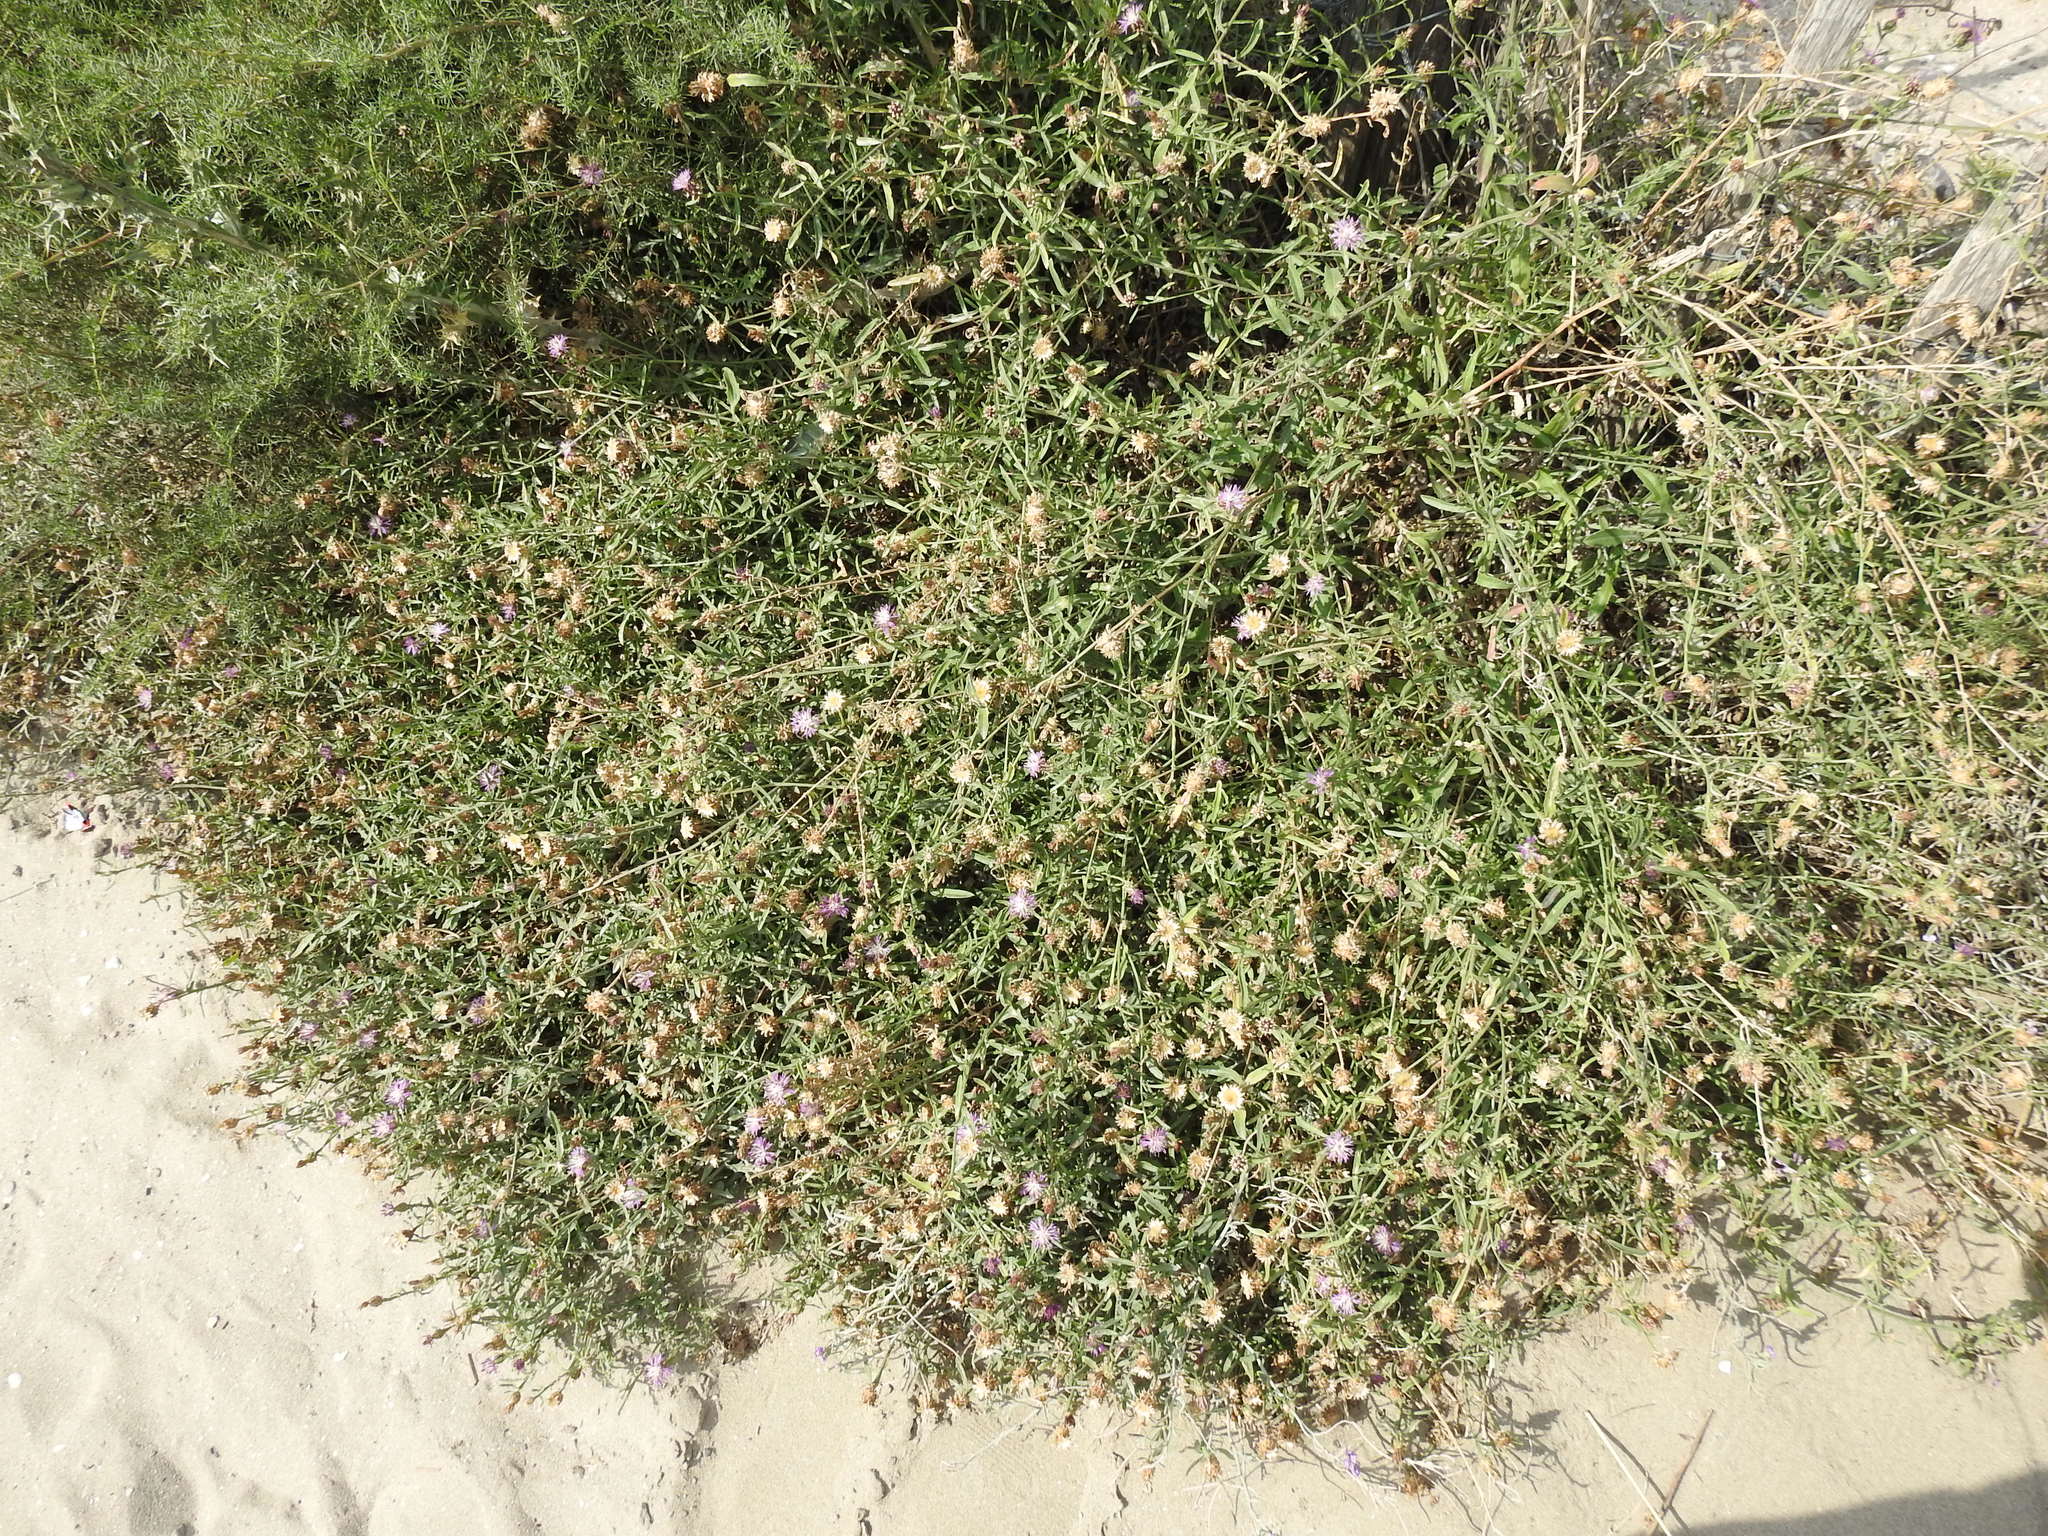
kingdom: Plantae
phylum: Tracheophyta
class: Magnoliopsida
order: Asterales
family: Asteraceae
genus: Centaurea
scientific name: Centaurea aspera
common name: Rough star-thistle
